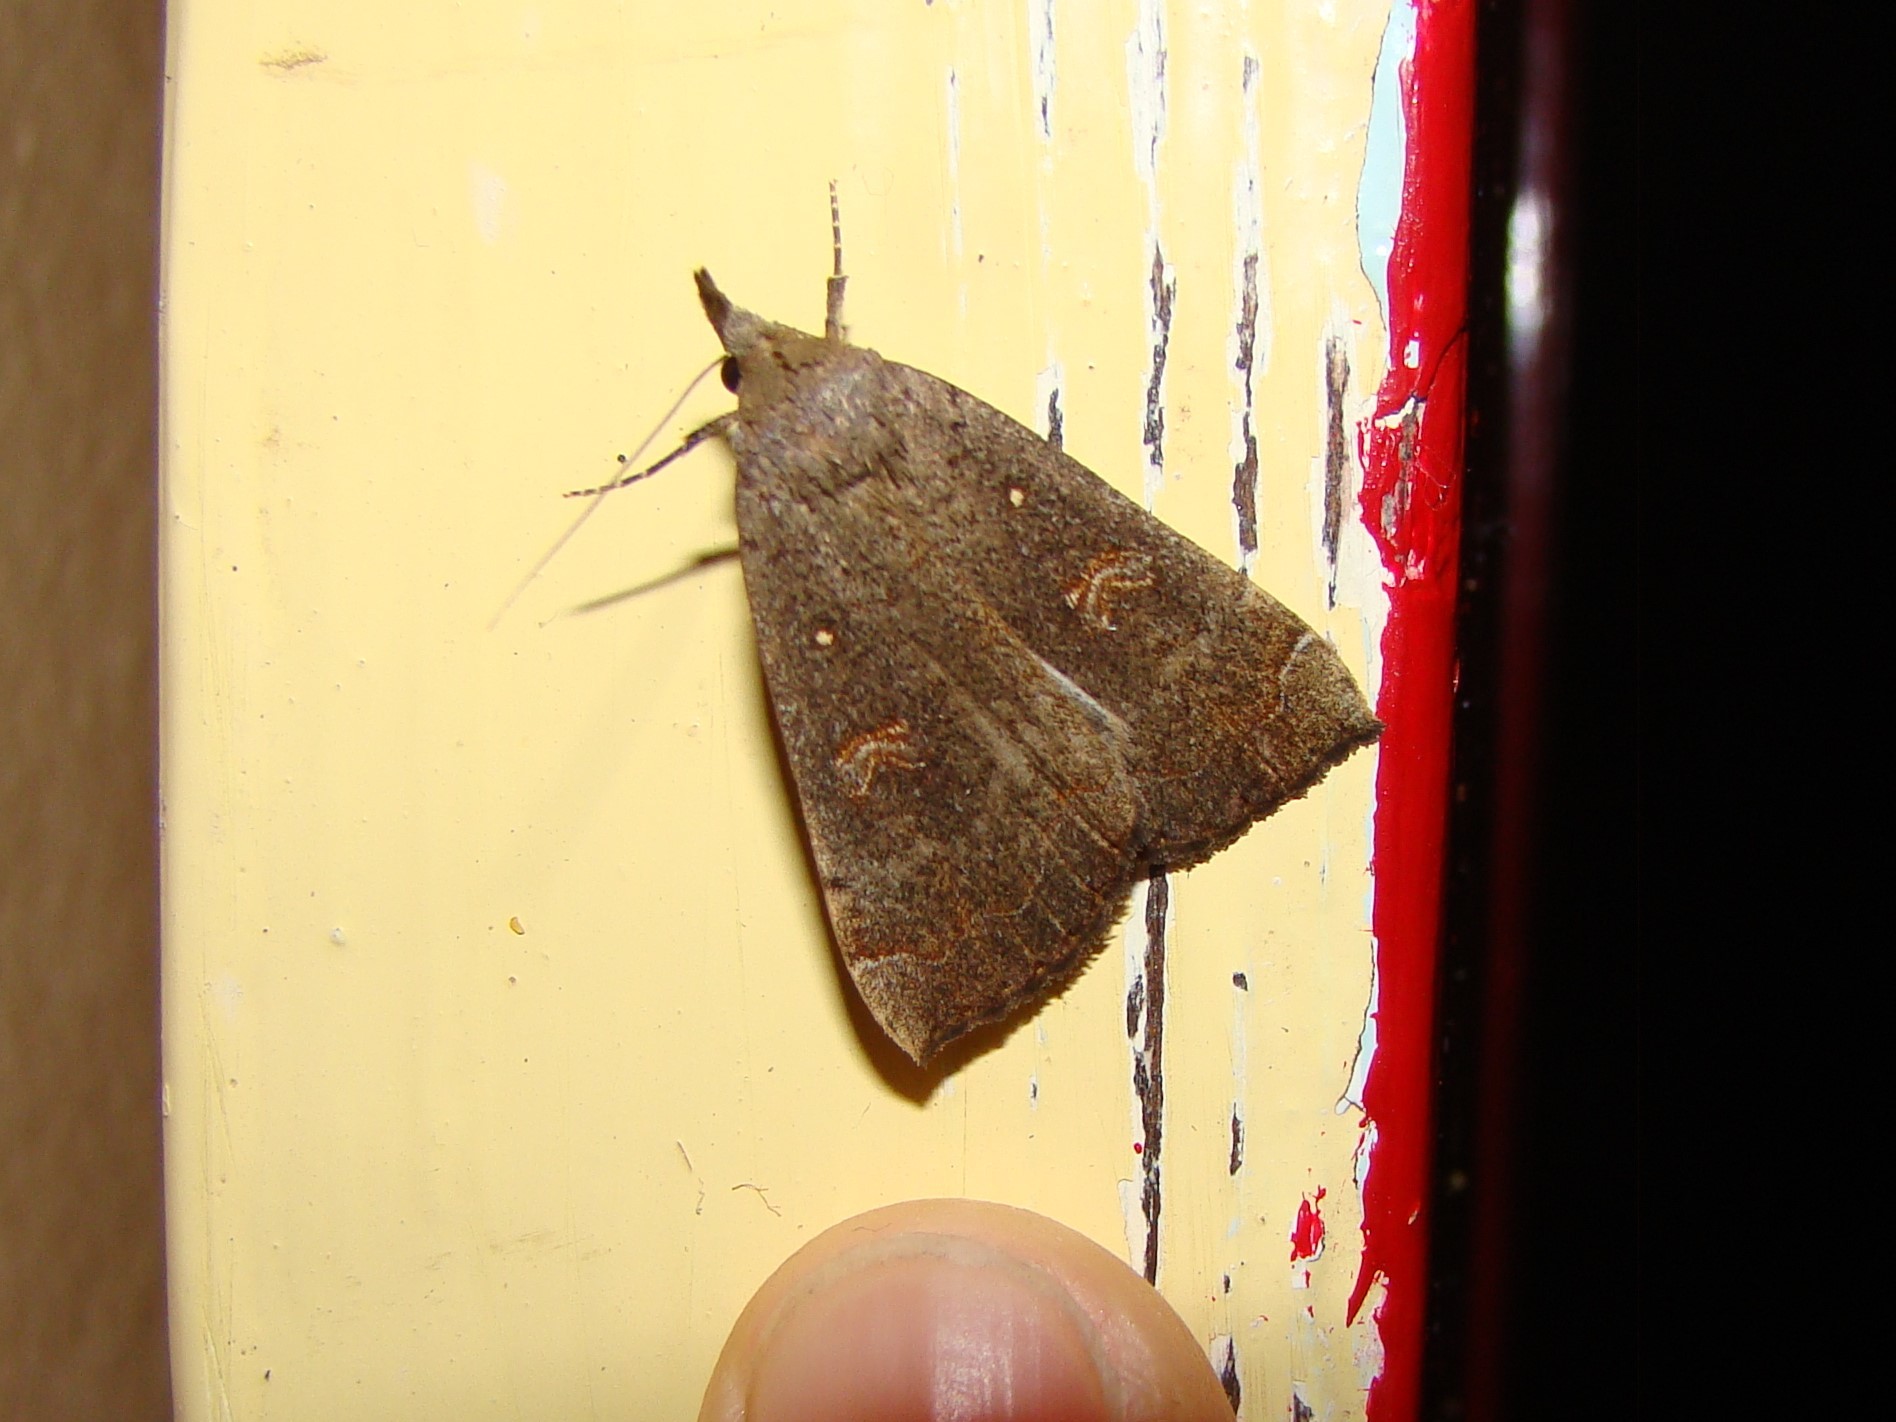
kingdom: Animalia
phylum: Arthropoda
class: Insecta
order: Lepidoptera
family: Erebidae
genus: Rhapsa
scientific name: Rhapsa scotosialis
